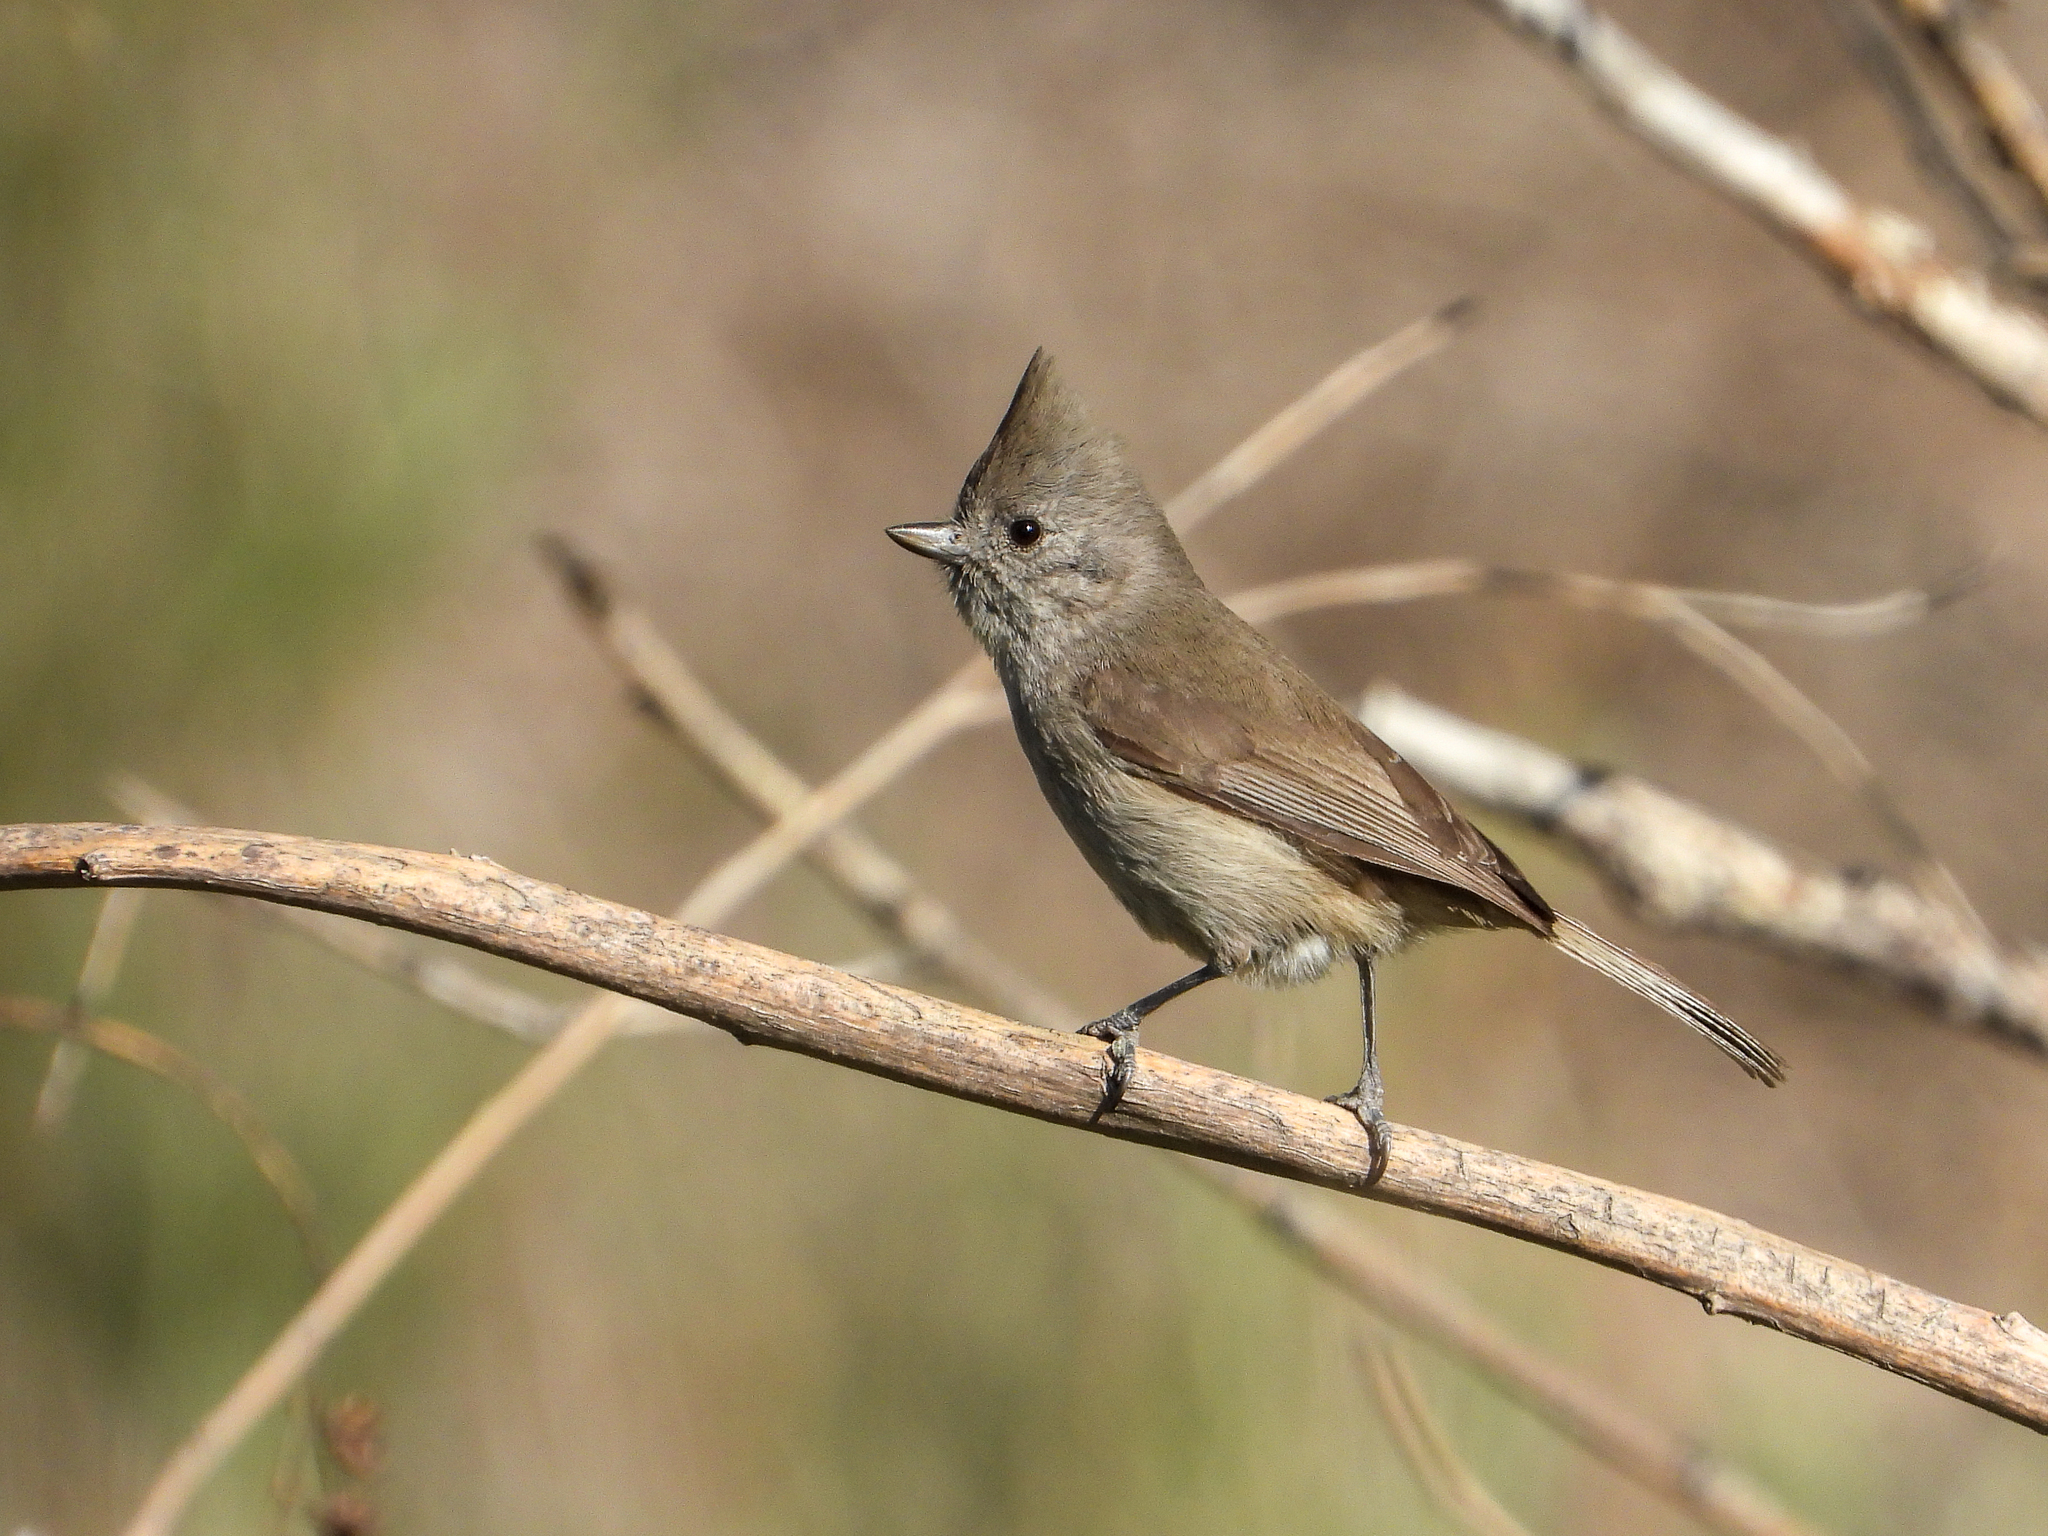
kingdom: Animalia
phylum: Chordata
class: Aves
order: Passeriformes
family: Paridae
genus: Baeolophus
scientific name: Baeolophus inornatus
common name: Oak titmouse
